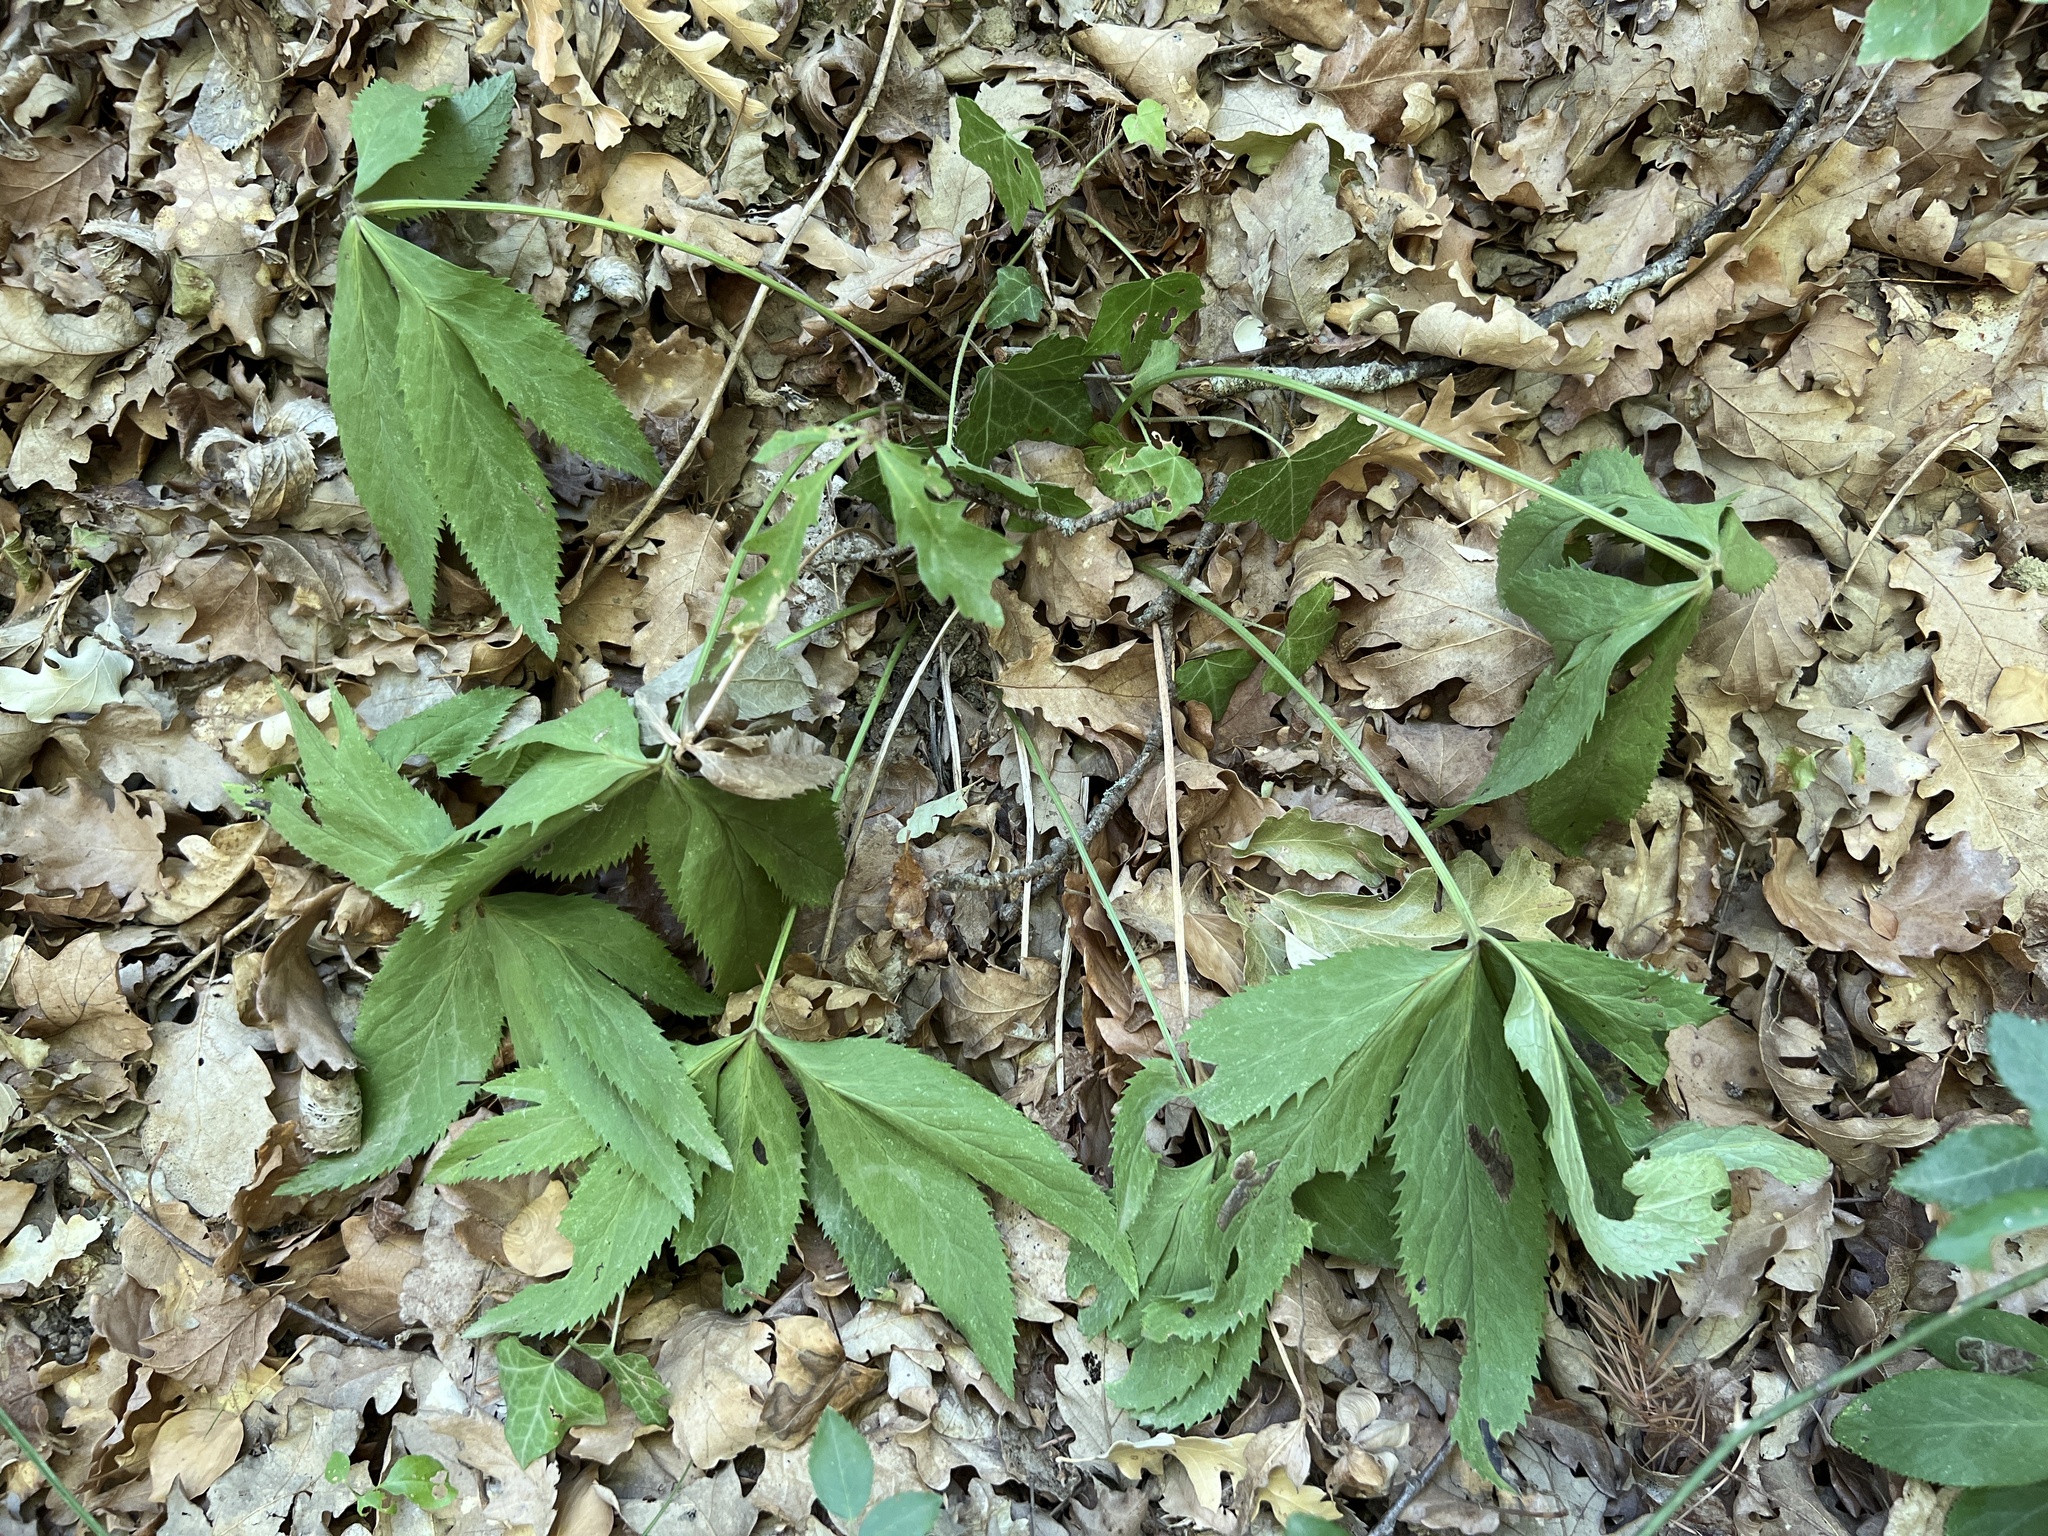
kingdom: Plantae
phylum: Tracheophyta
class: Magnoliopsida
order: Ranunculales
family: Ranunculaceae
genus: Helleborus
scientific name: Helleborus viridis
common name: Green hellebore
